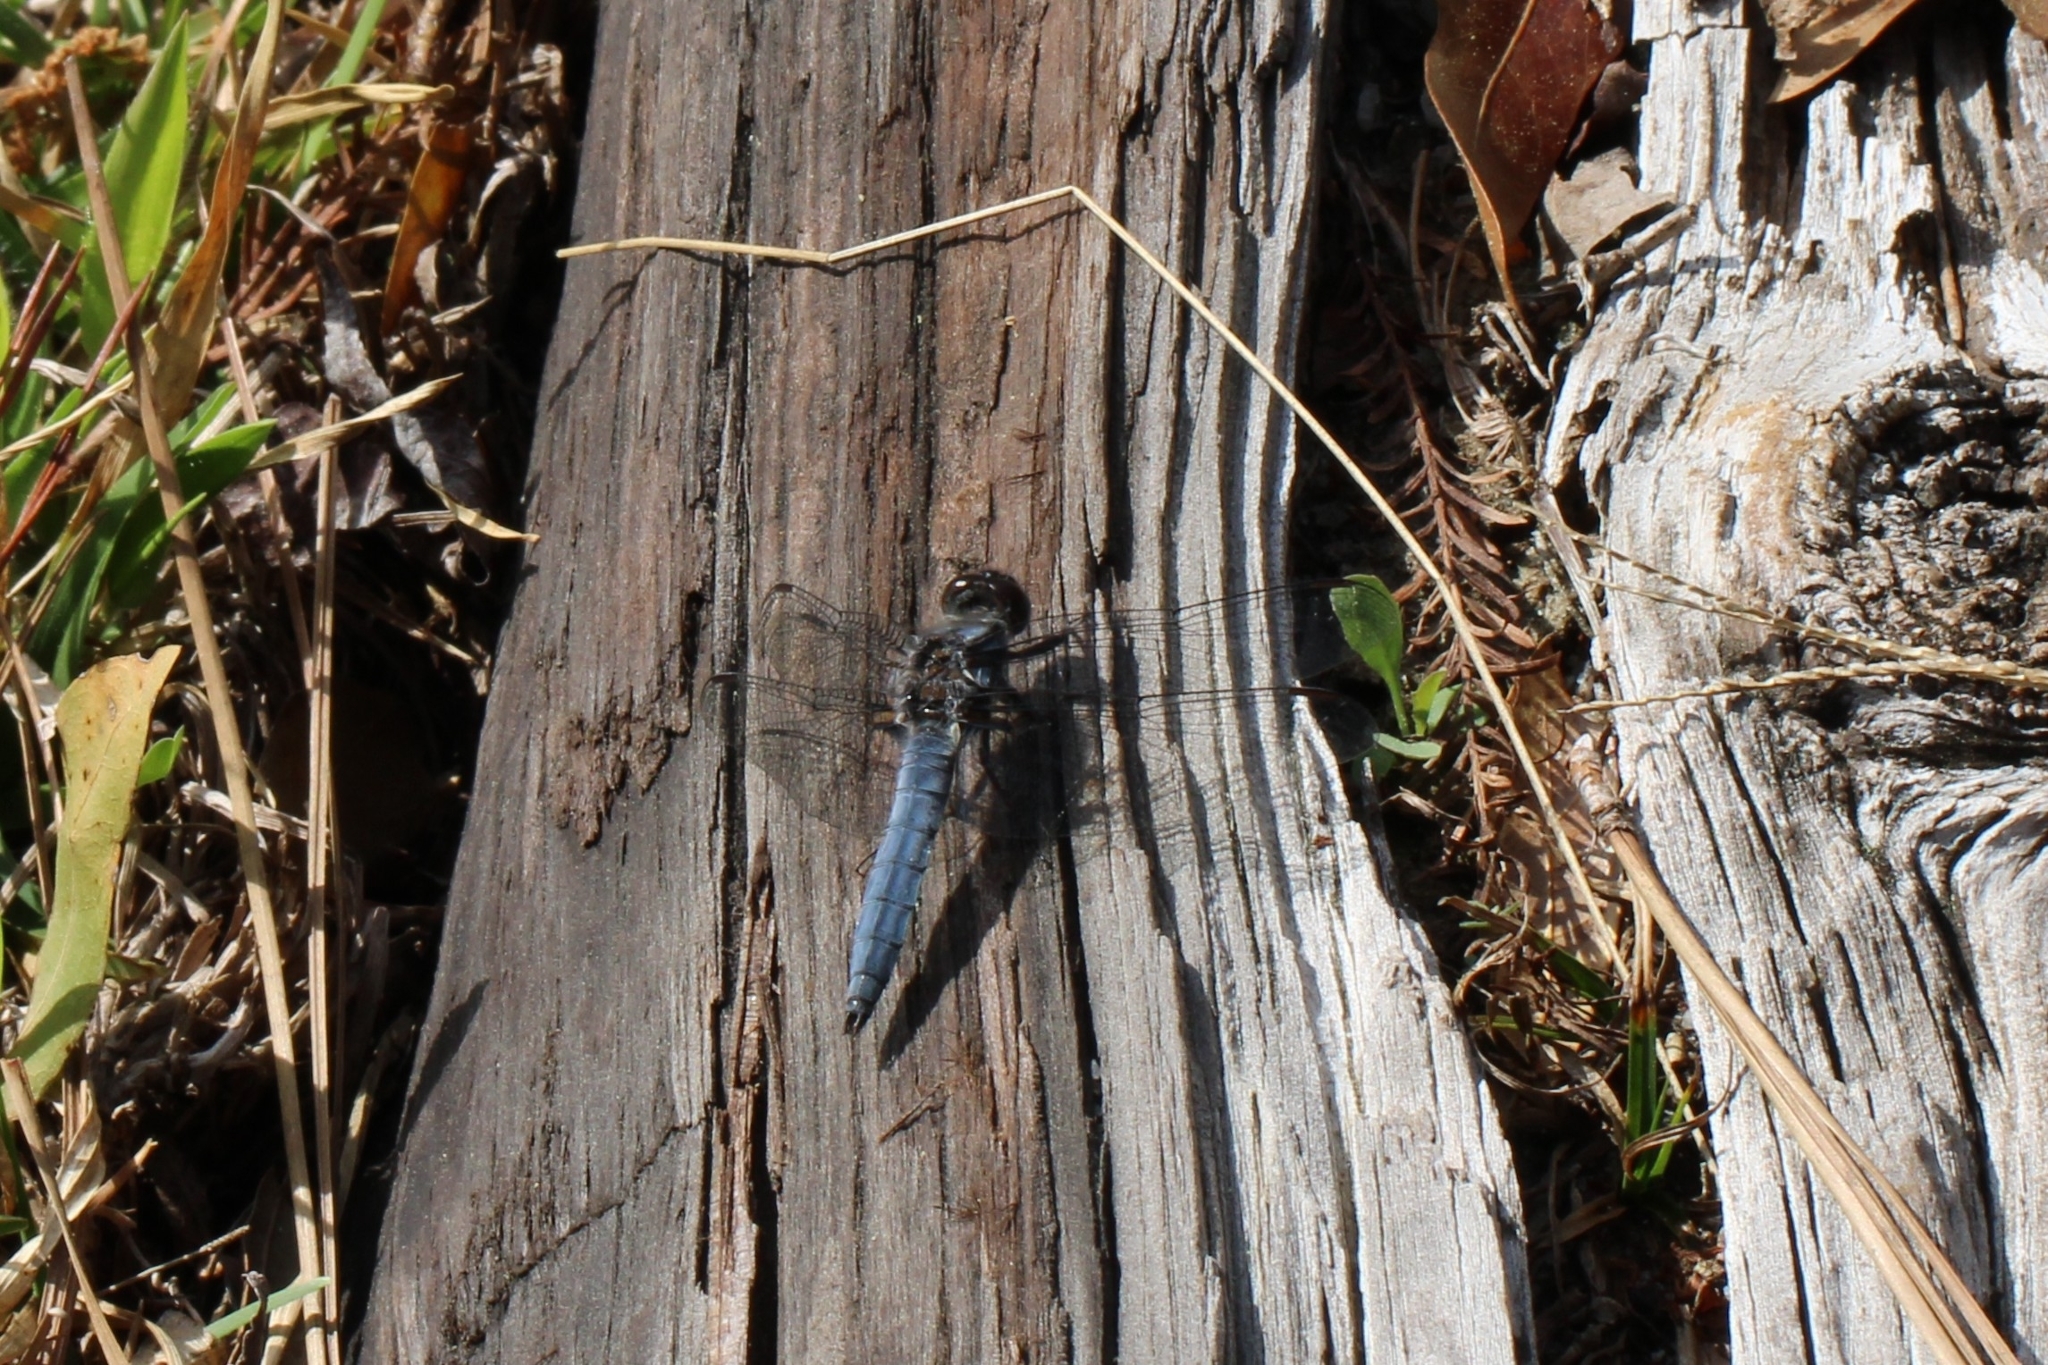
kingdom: Animalia
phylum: Arthropoda
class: Insecta
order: Odonata
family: Libellulidae
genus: Ladona
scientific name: Ladona deplanata
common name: Blue corporal
